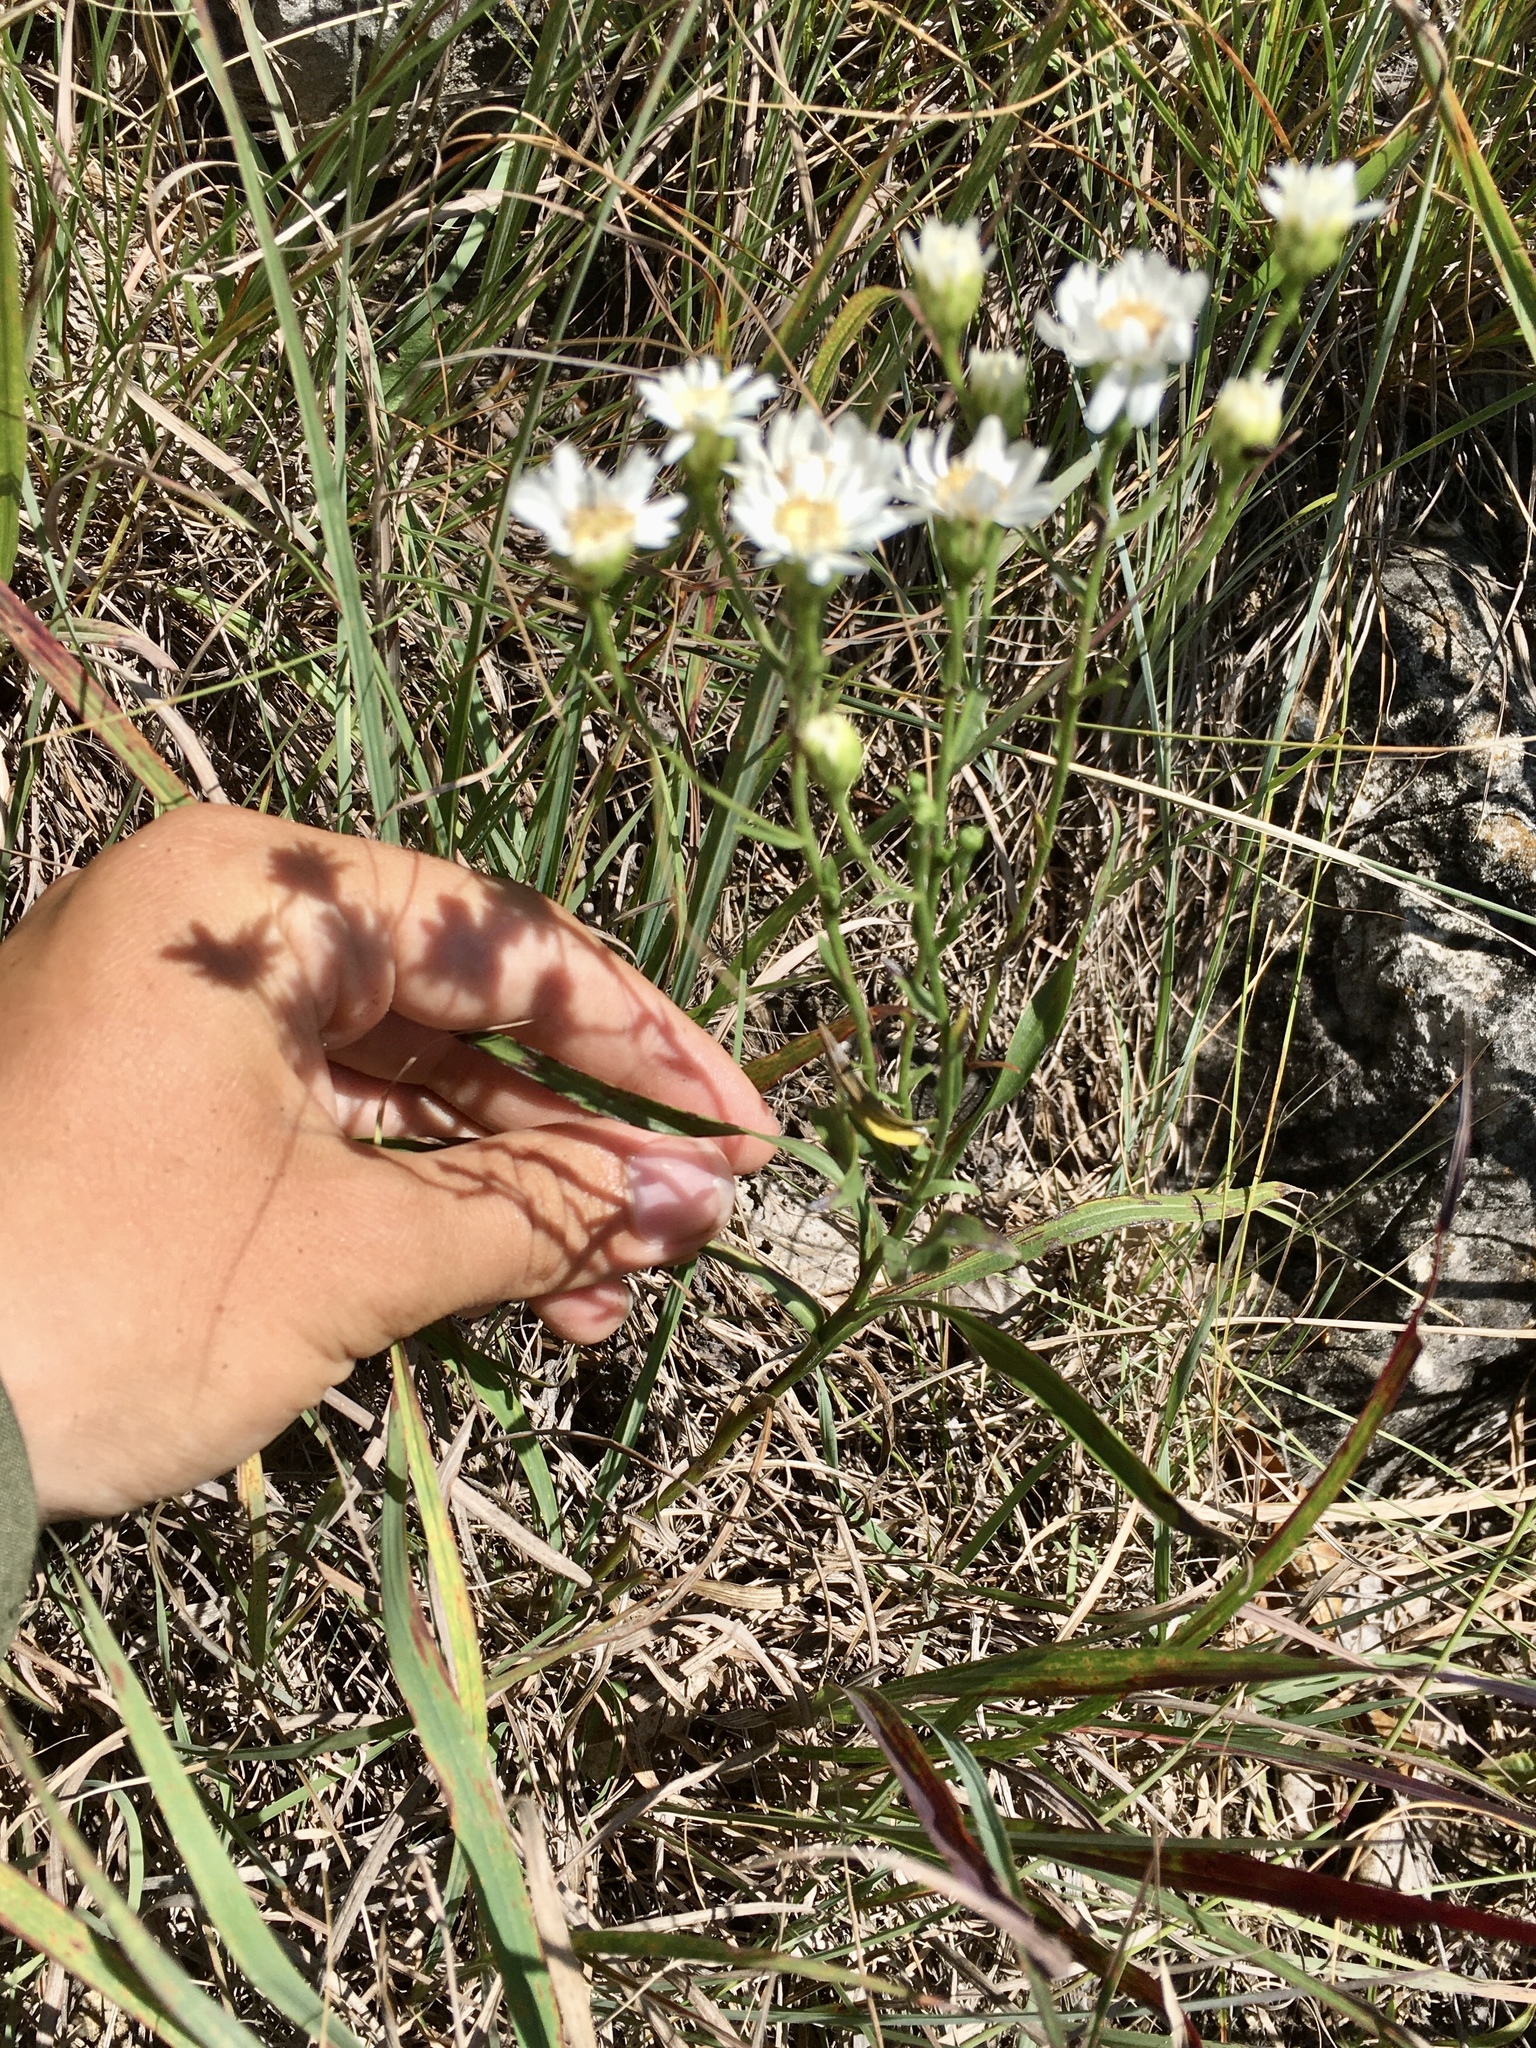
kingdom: Plantae
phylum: Tracheophyta
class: Magnoliopsida
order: Asterales
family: Asteraceae
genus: Solidago
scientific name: Solidago ptarmicoides
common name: White flat-top goldenrod
